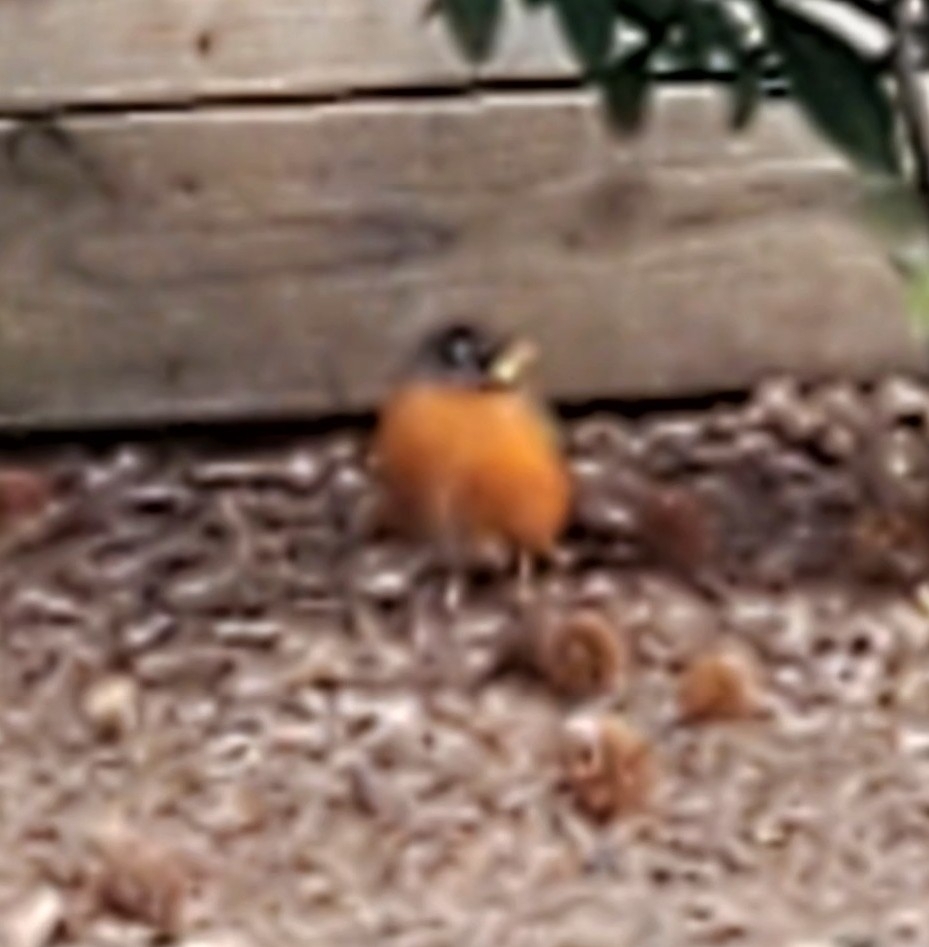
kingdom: Animalia
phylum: Chordata
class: Aves
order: Passeriformes
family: Turdidae
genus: Turdus
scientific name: Turdus migratorius
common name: American robin
